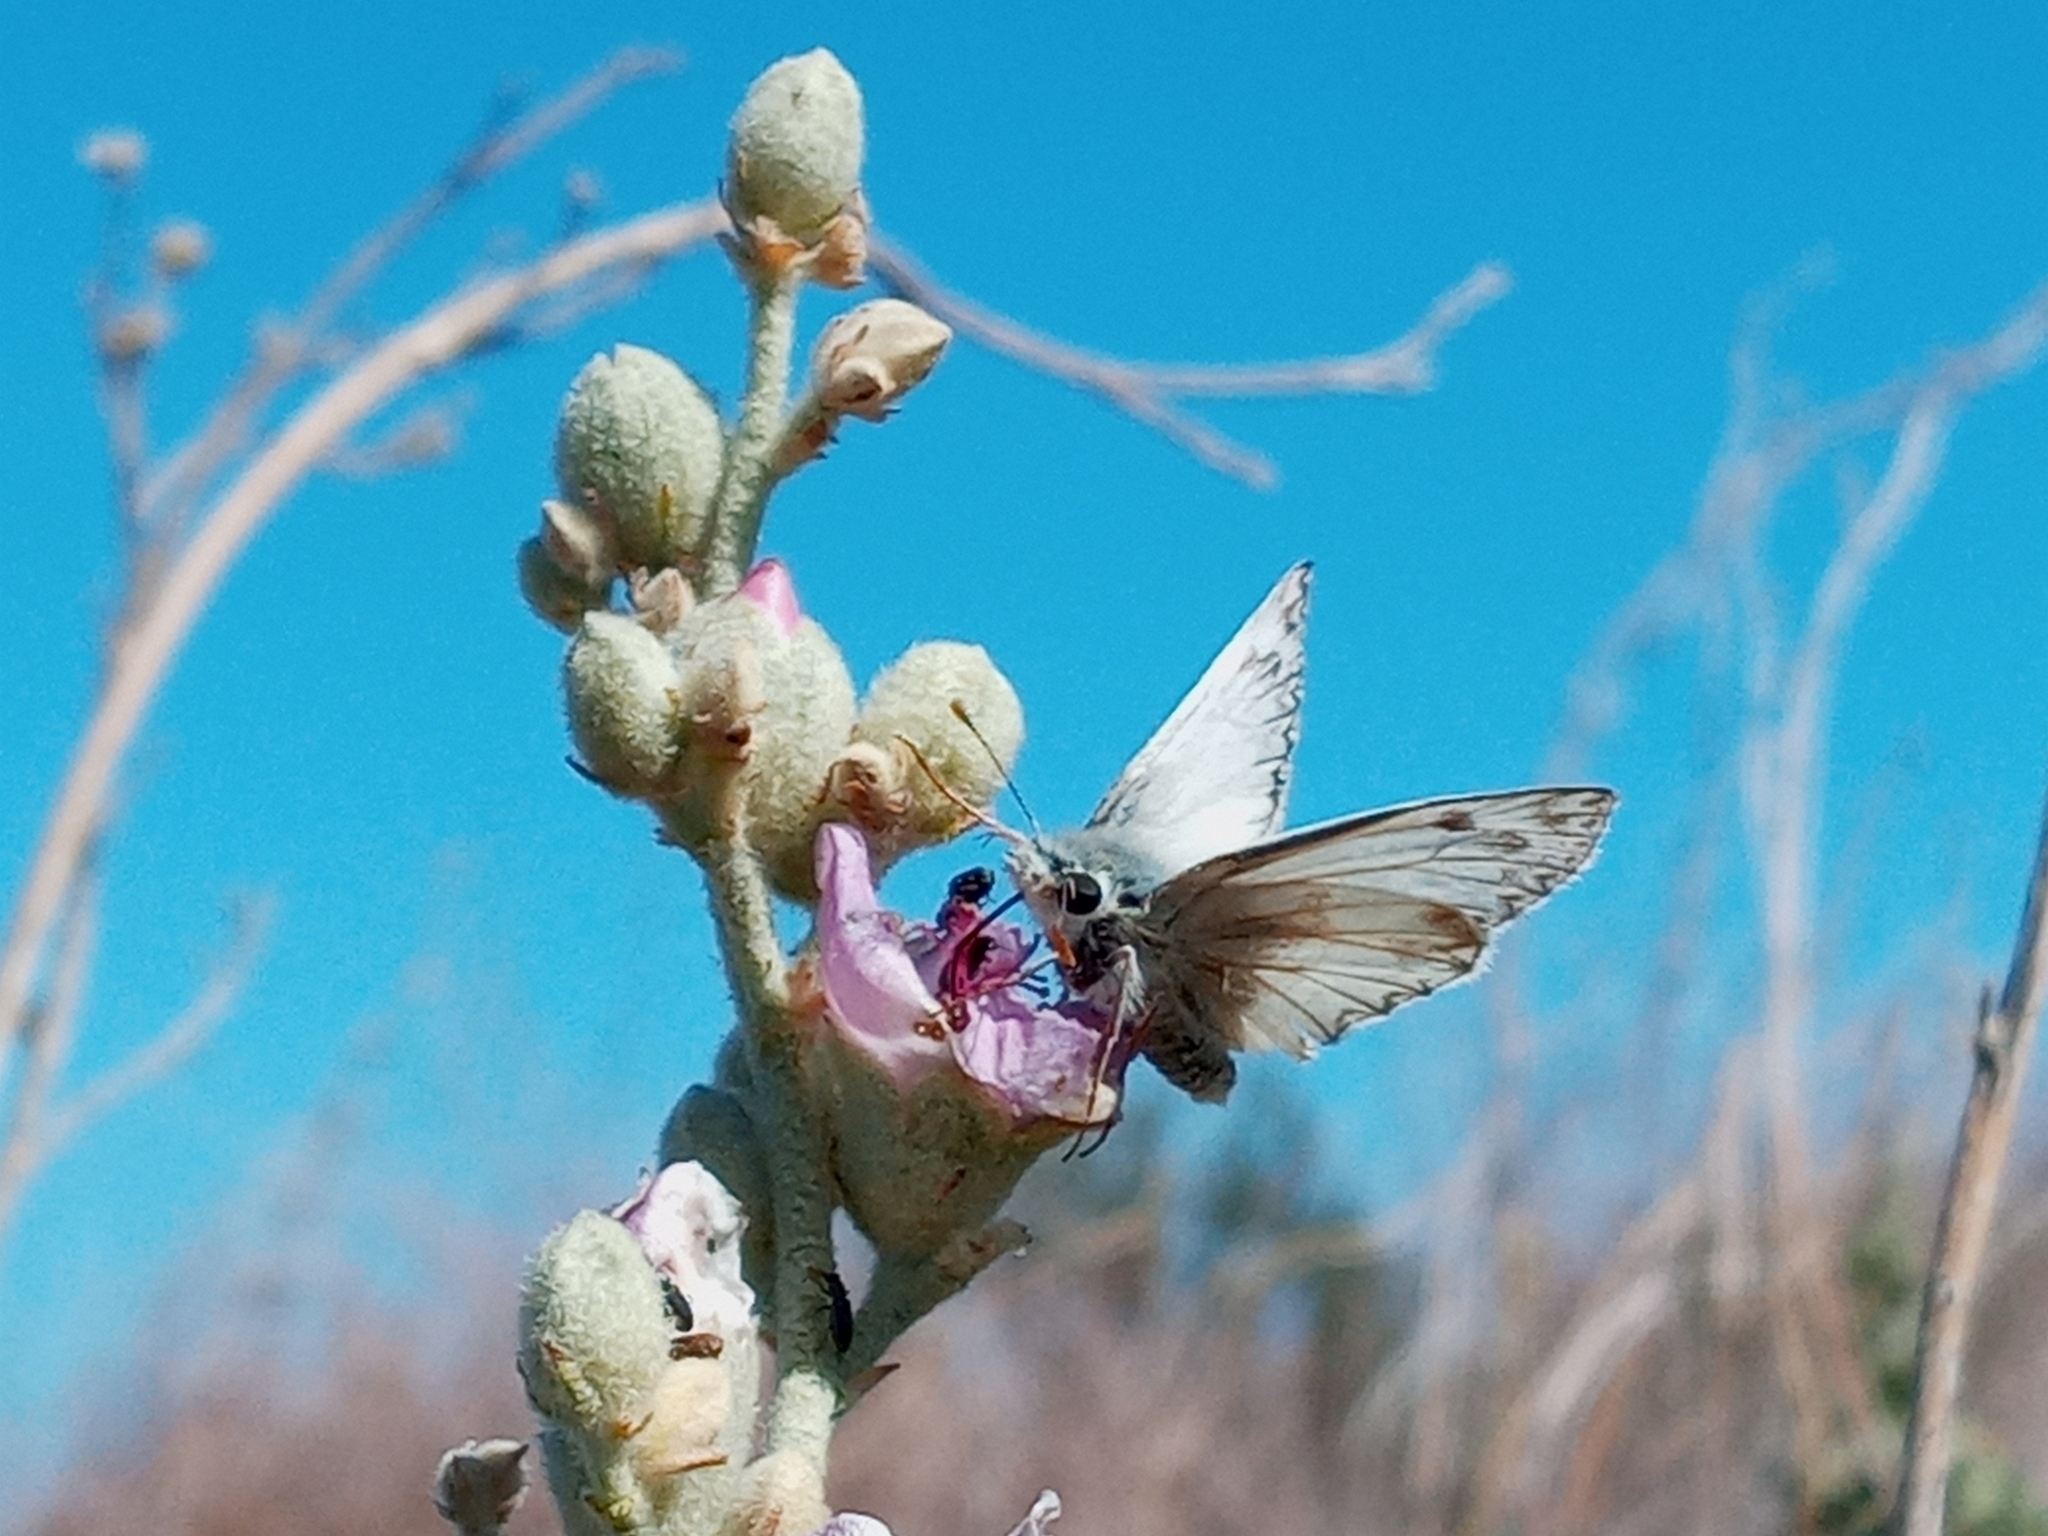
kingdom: Animalia
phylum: Arthropoda
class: Insecta
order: Lepidoptera
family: Hesperiidae
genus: Heliopetes
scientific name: Heliopetes ericetorum
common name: Northern white-skipper
